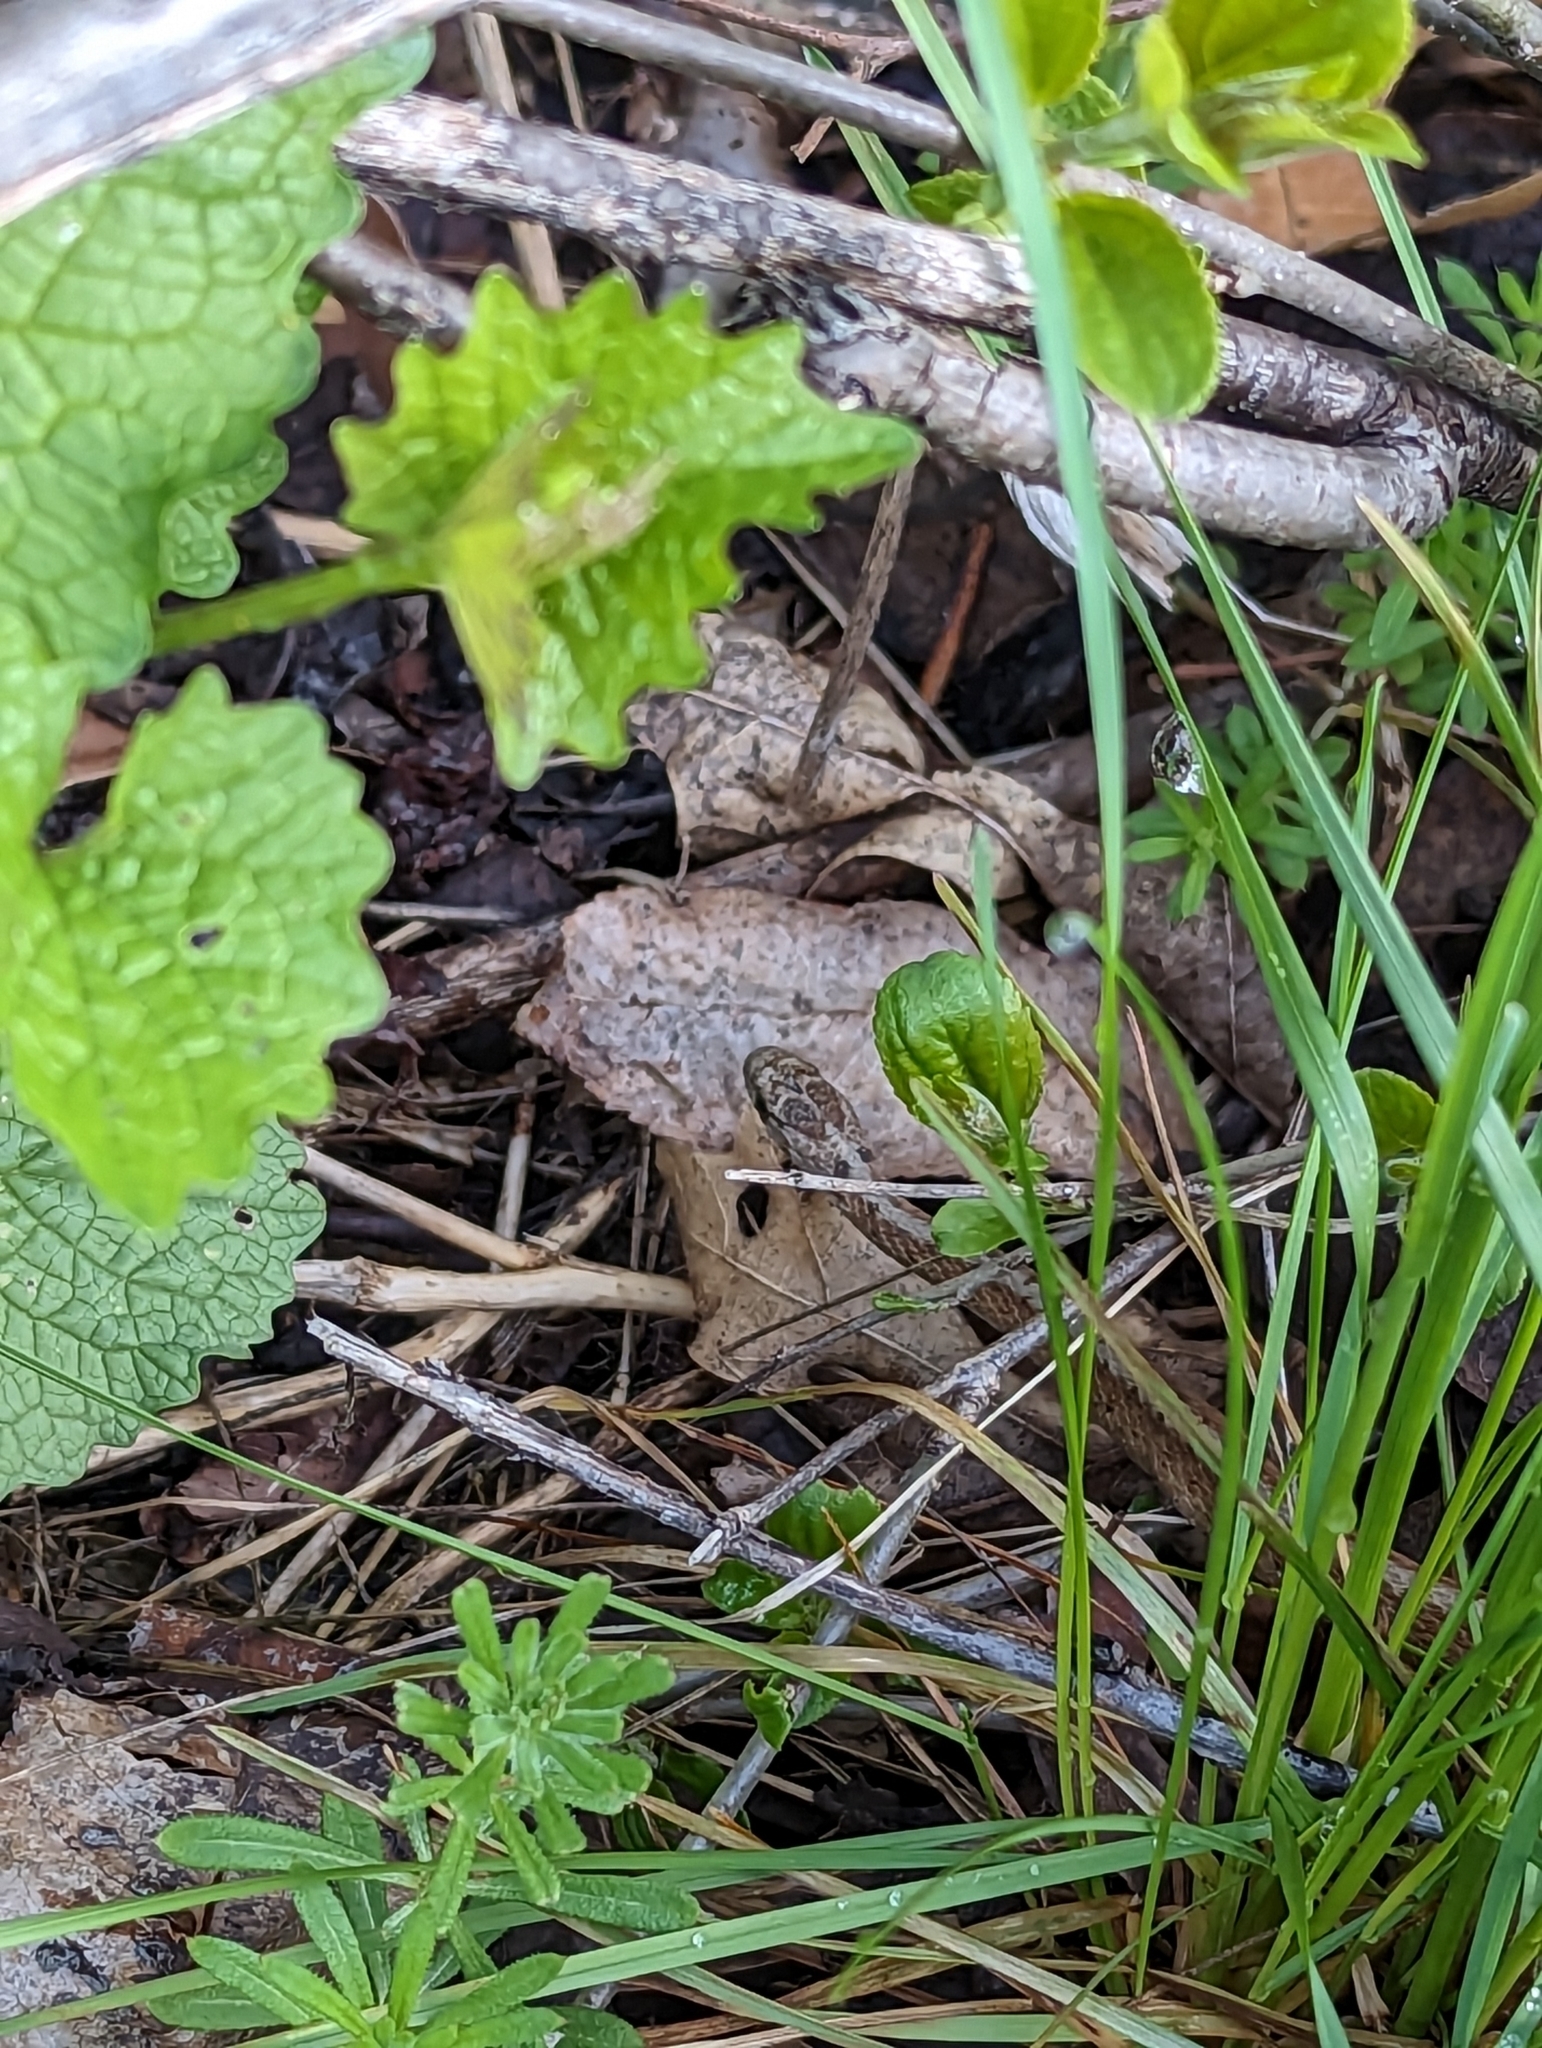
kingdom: Animalia
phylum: Chordata
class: Squamata
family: Colubridae
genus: Storeria
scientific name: Storeria dekayi
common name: (dekay’s) brown snake
